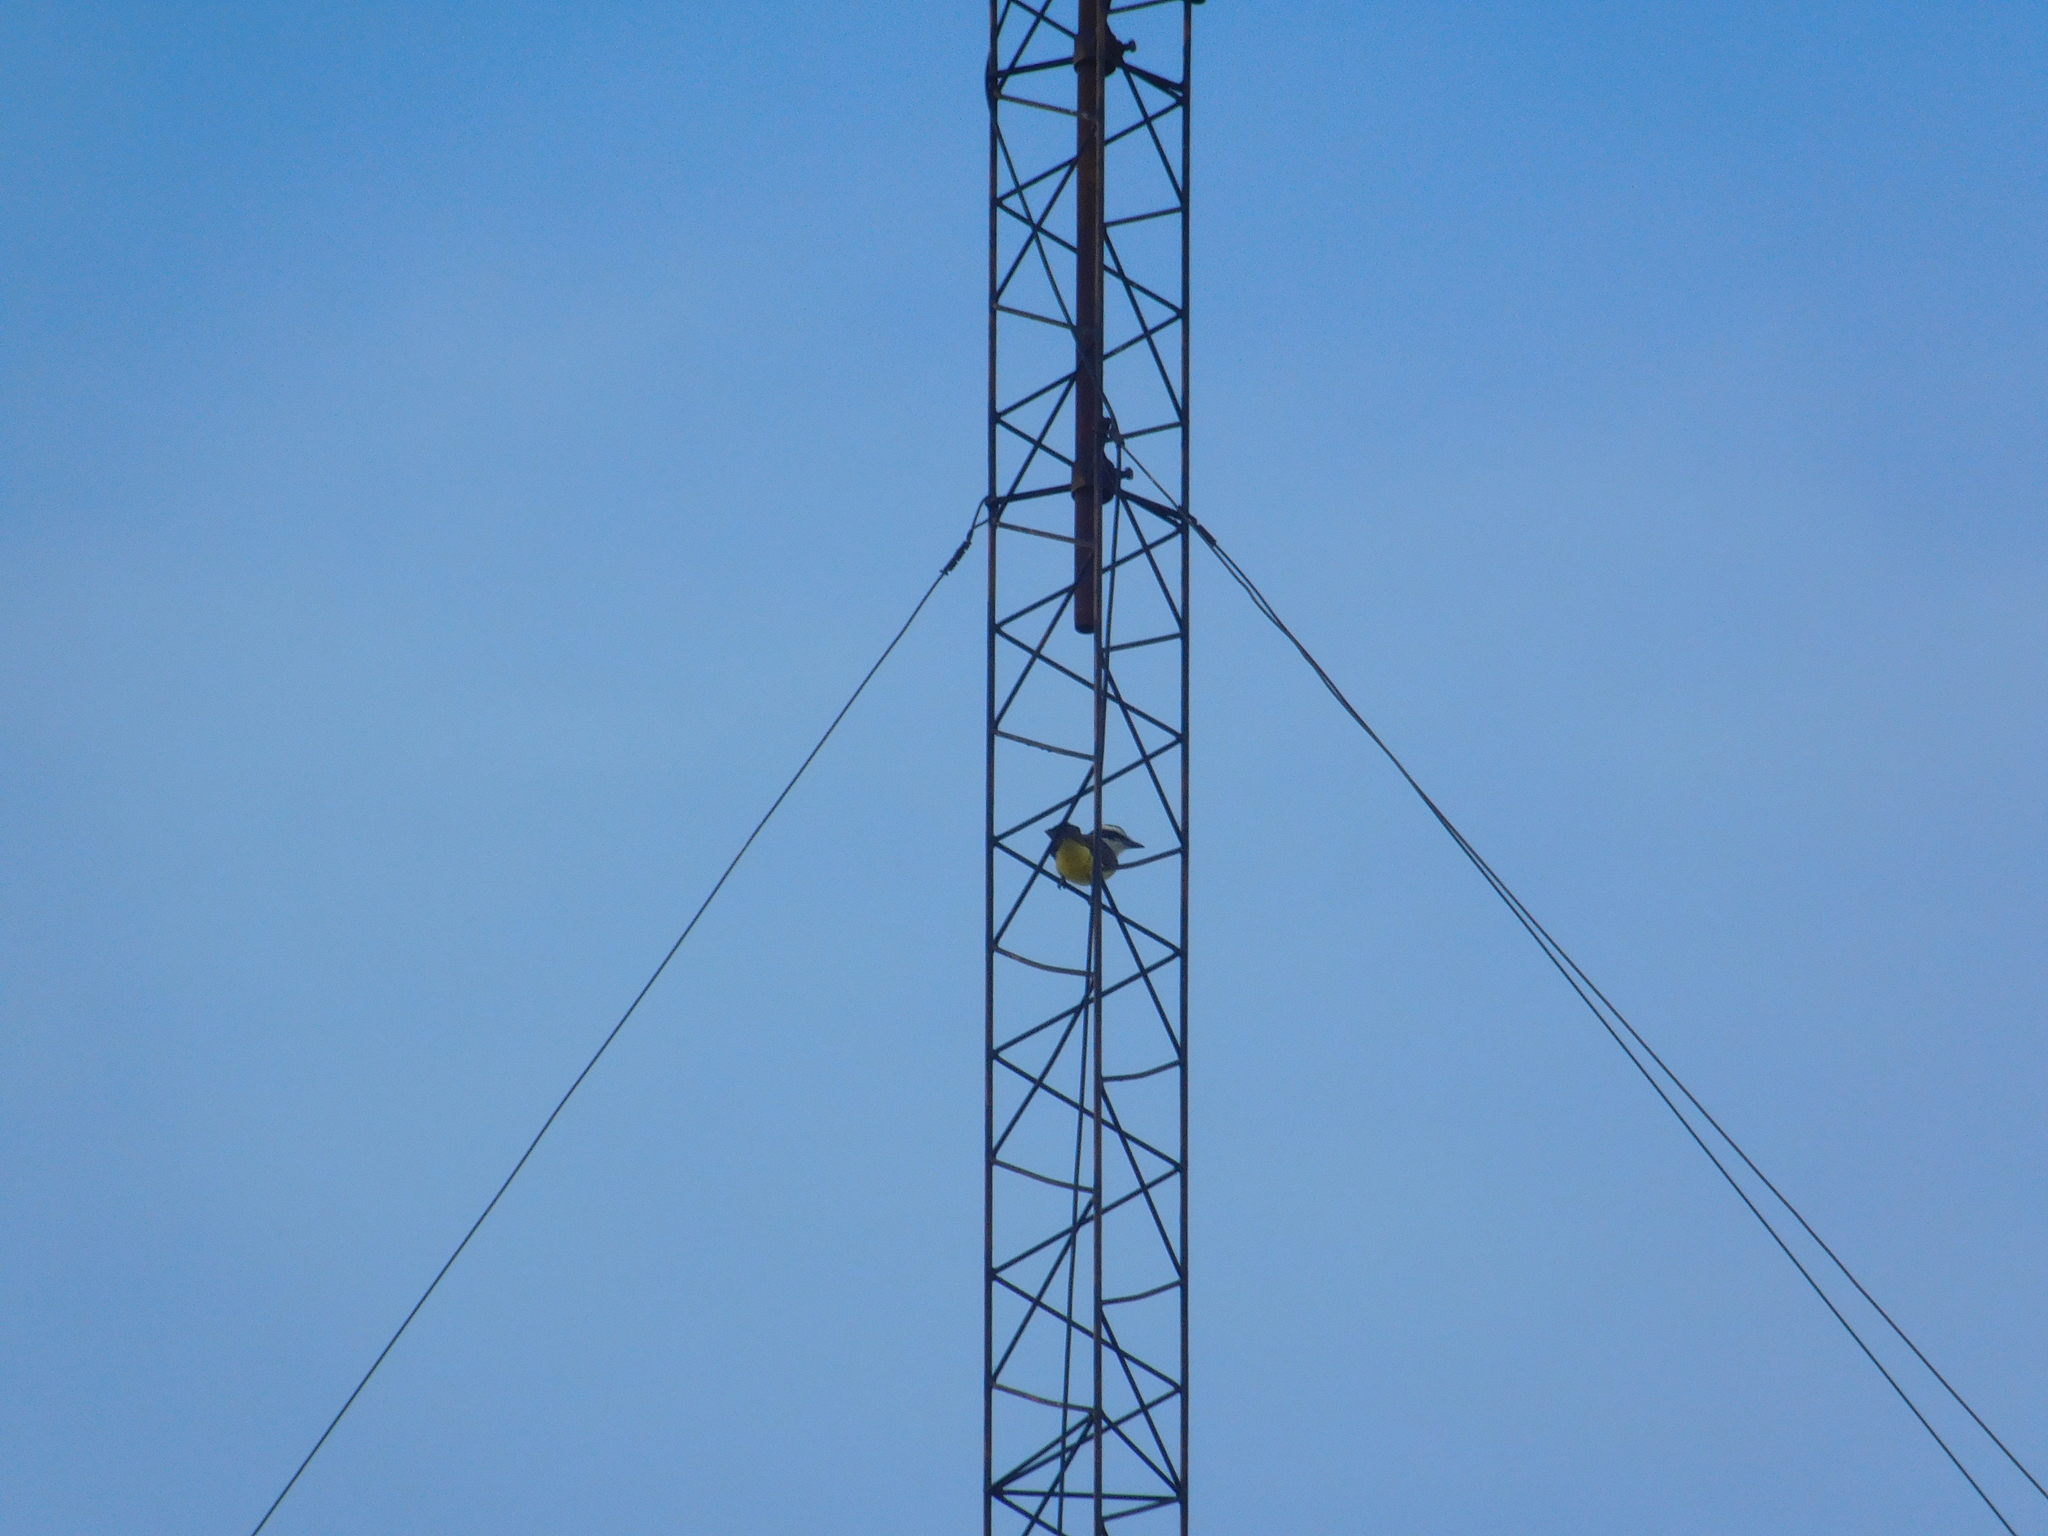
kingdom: Animalia
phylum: Chordata
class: Aves
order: Passeriformes
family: Tyrannidae
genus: Pitangus
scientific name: Pitangus sulphuratus
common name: Great kiskadee
